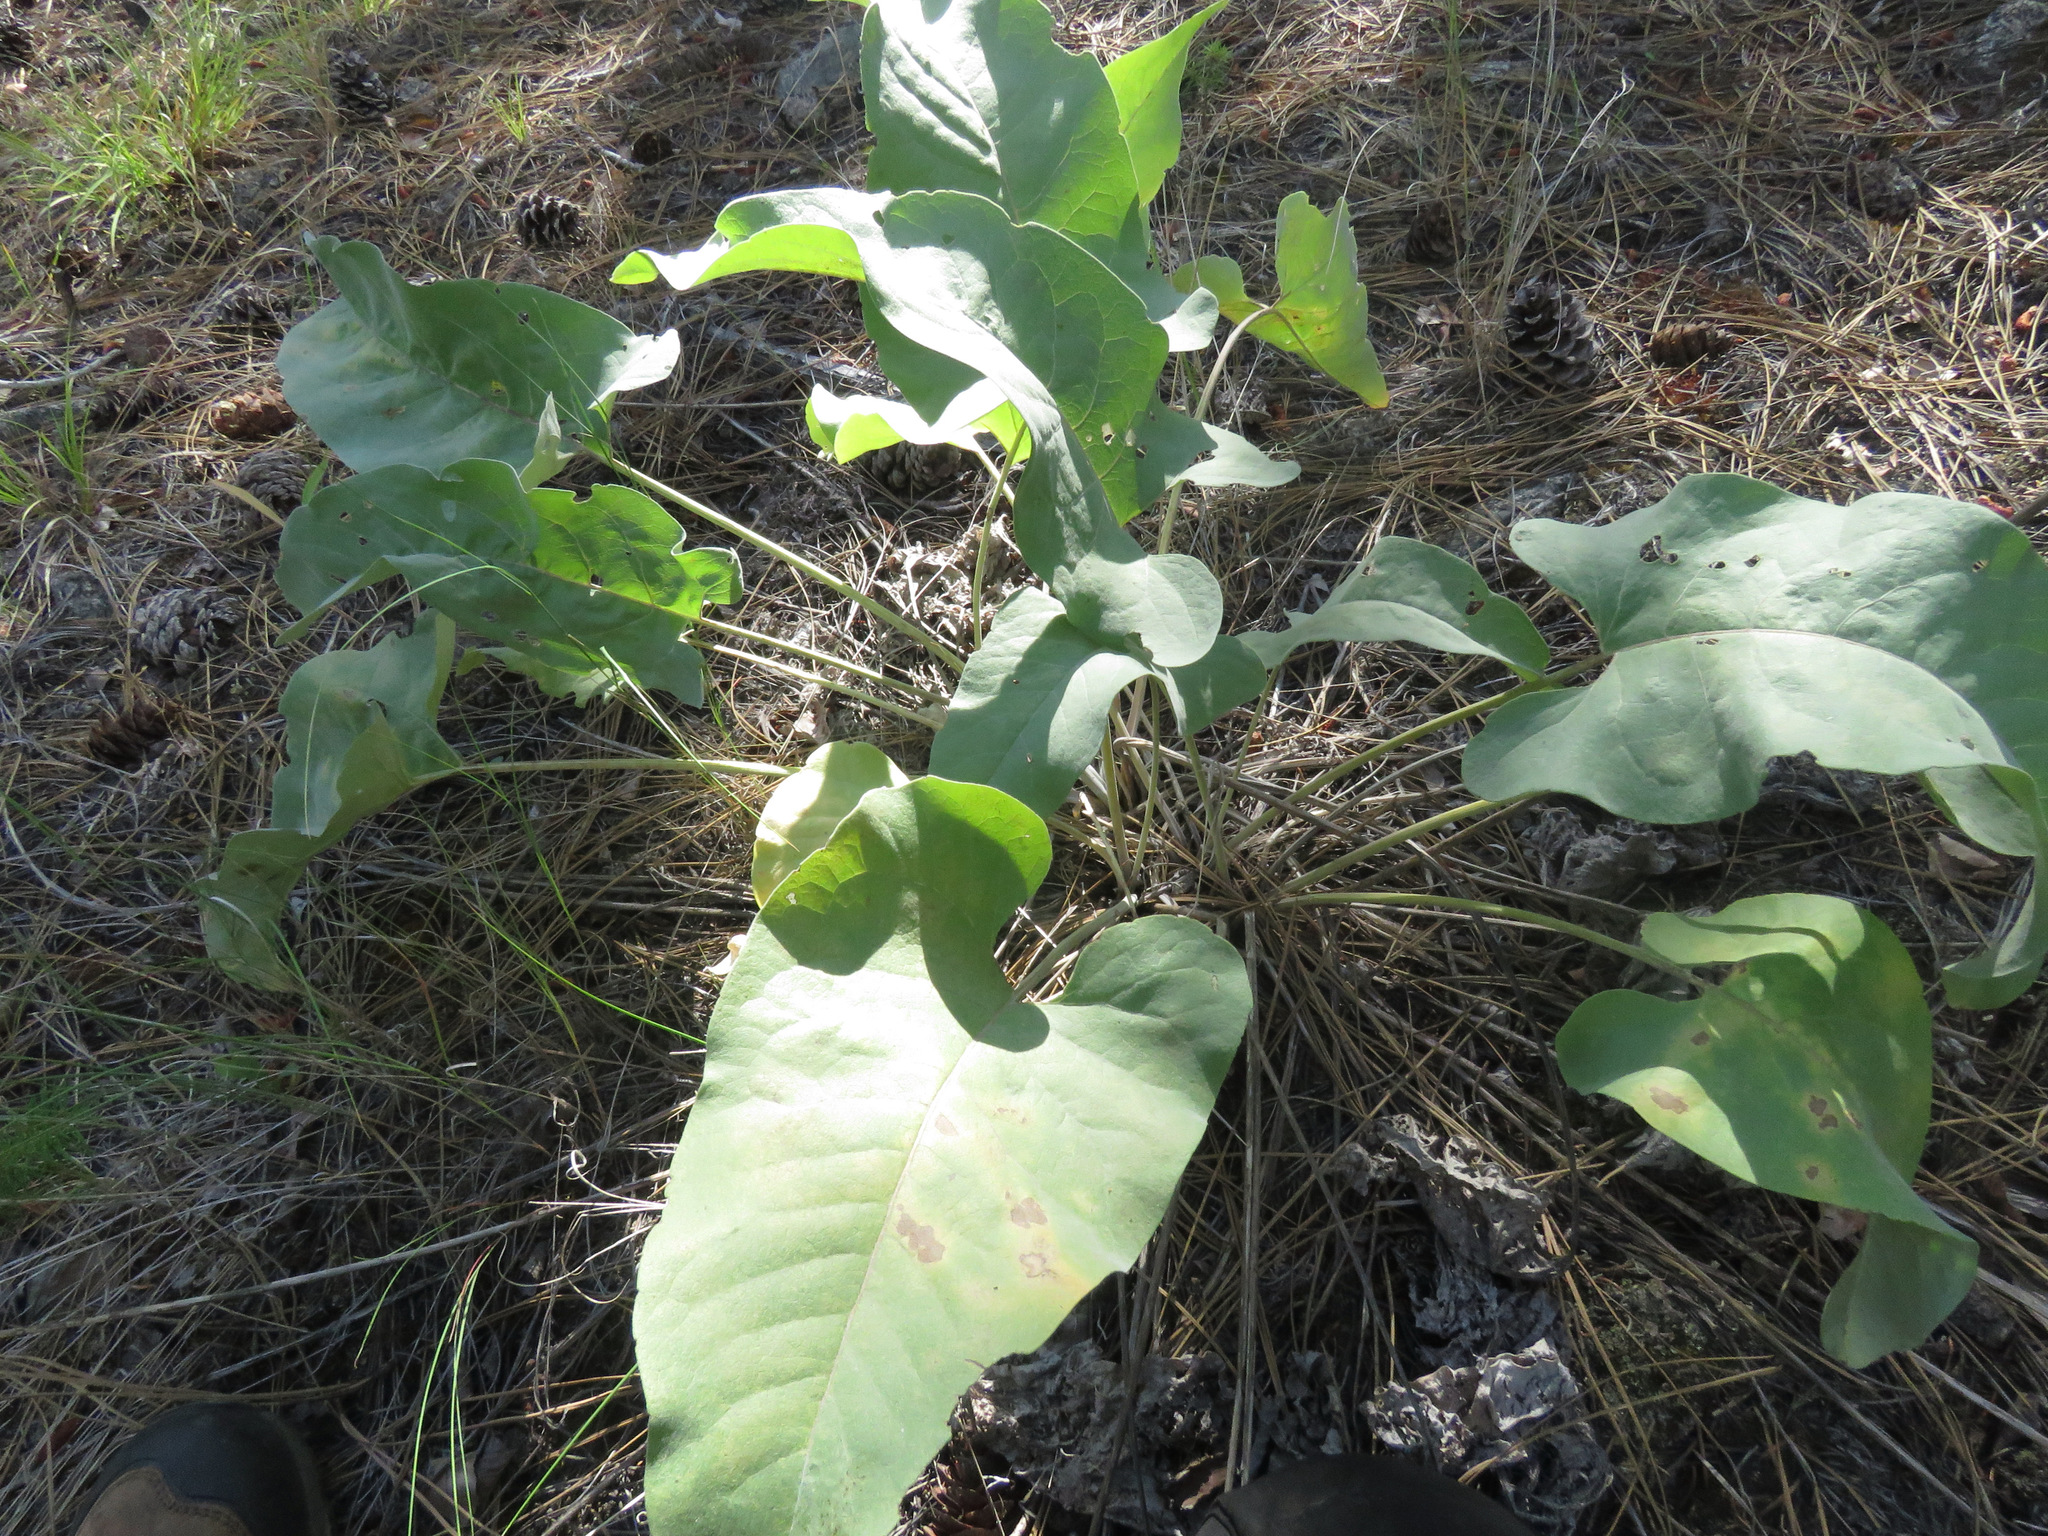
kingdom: Plantae
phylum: Tracheophyta
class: Magnoliopsida
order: Asterales
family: Asteraceae
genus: Wyethia
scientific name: Wyethia sagittata
